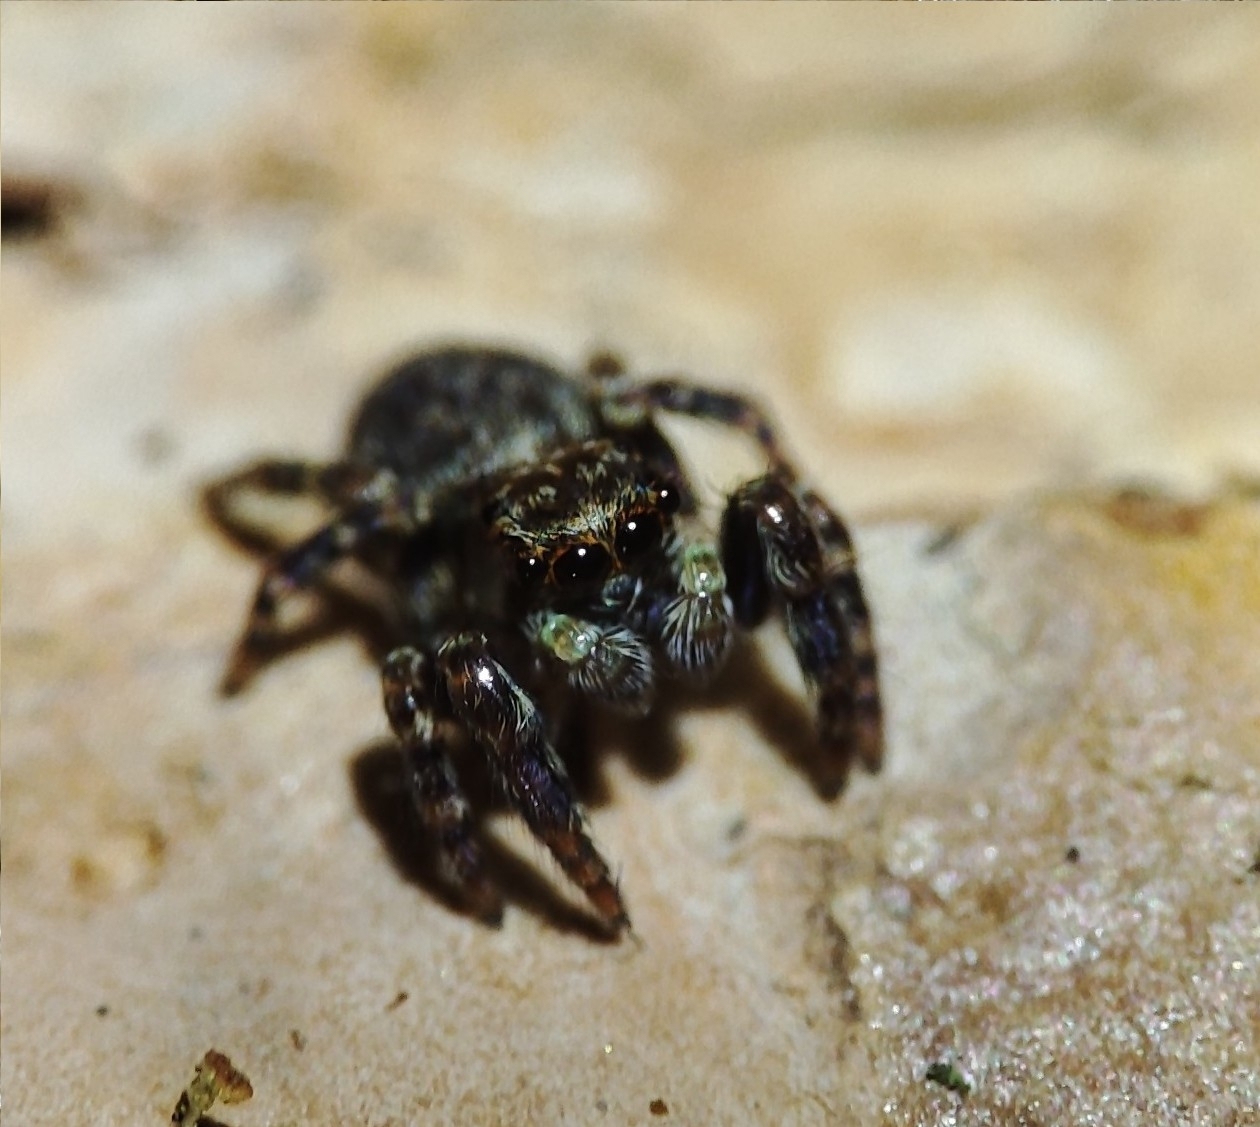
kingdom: Animalia
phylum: Arthropoda
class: Arachnida
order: Araneae
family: Salticidae
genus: Pseudeuophrys
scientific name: Pseudeuophrys erratica
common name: Jumping spider
